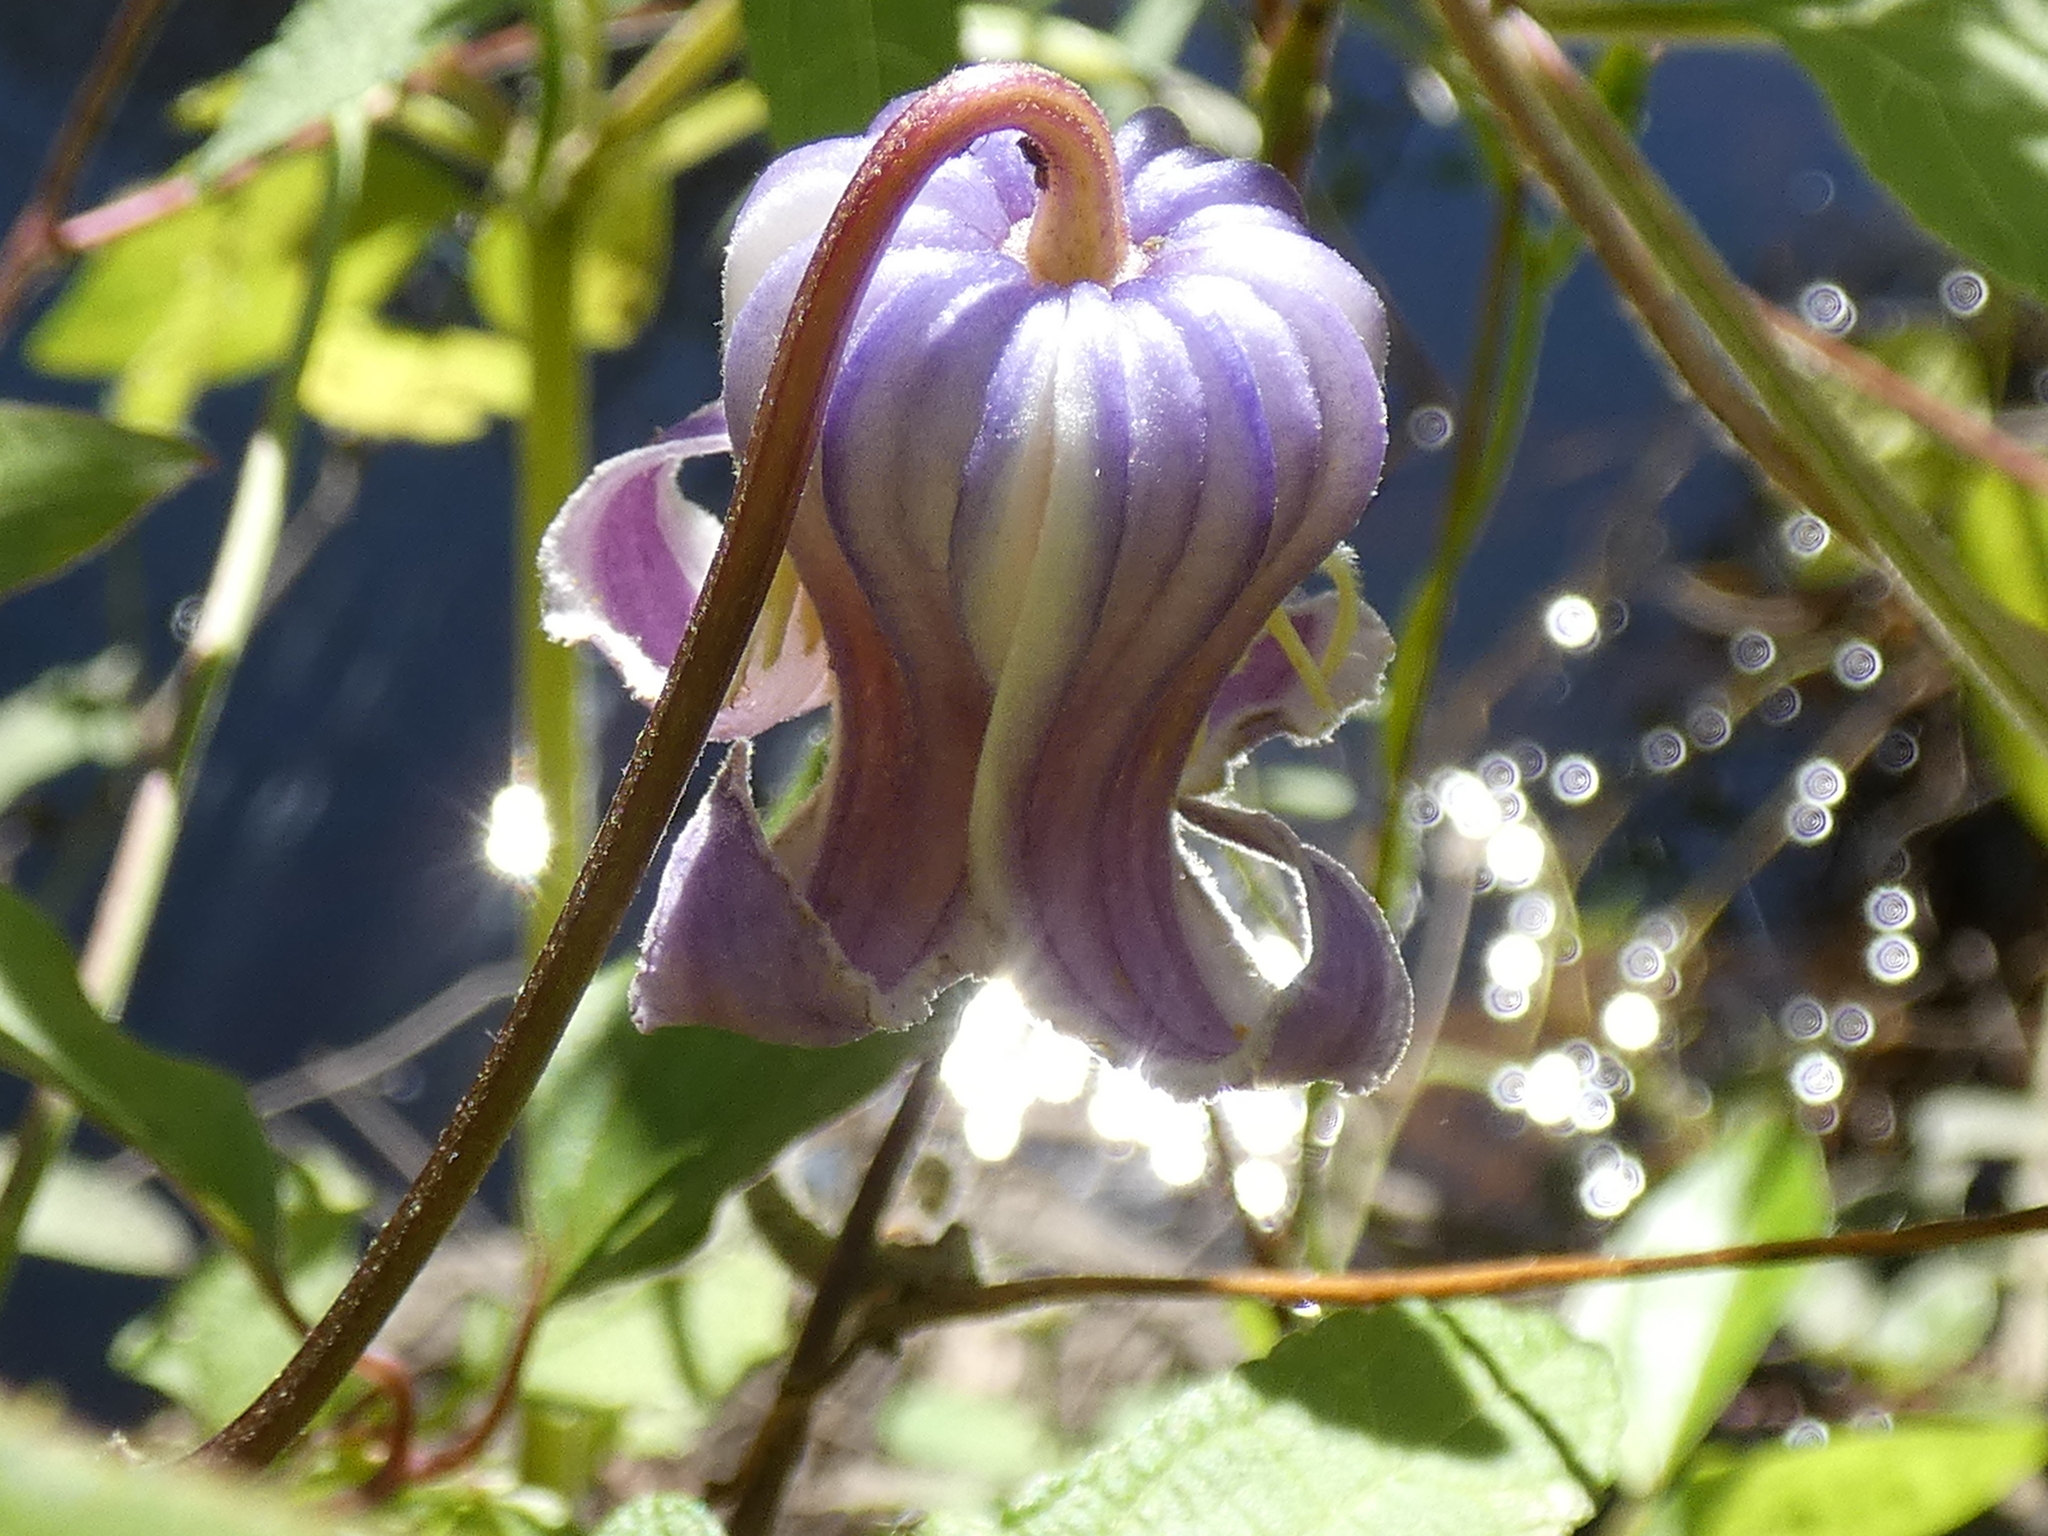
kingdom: Plantae
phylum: Tracheophyta
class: Magnoliopsida
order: Ranunculales
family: Ranunculaceae
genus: Clematis
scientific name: Clematis crispa
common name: Curly clematis
